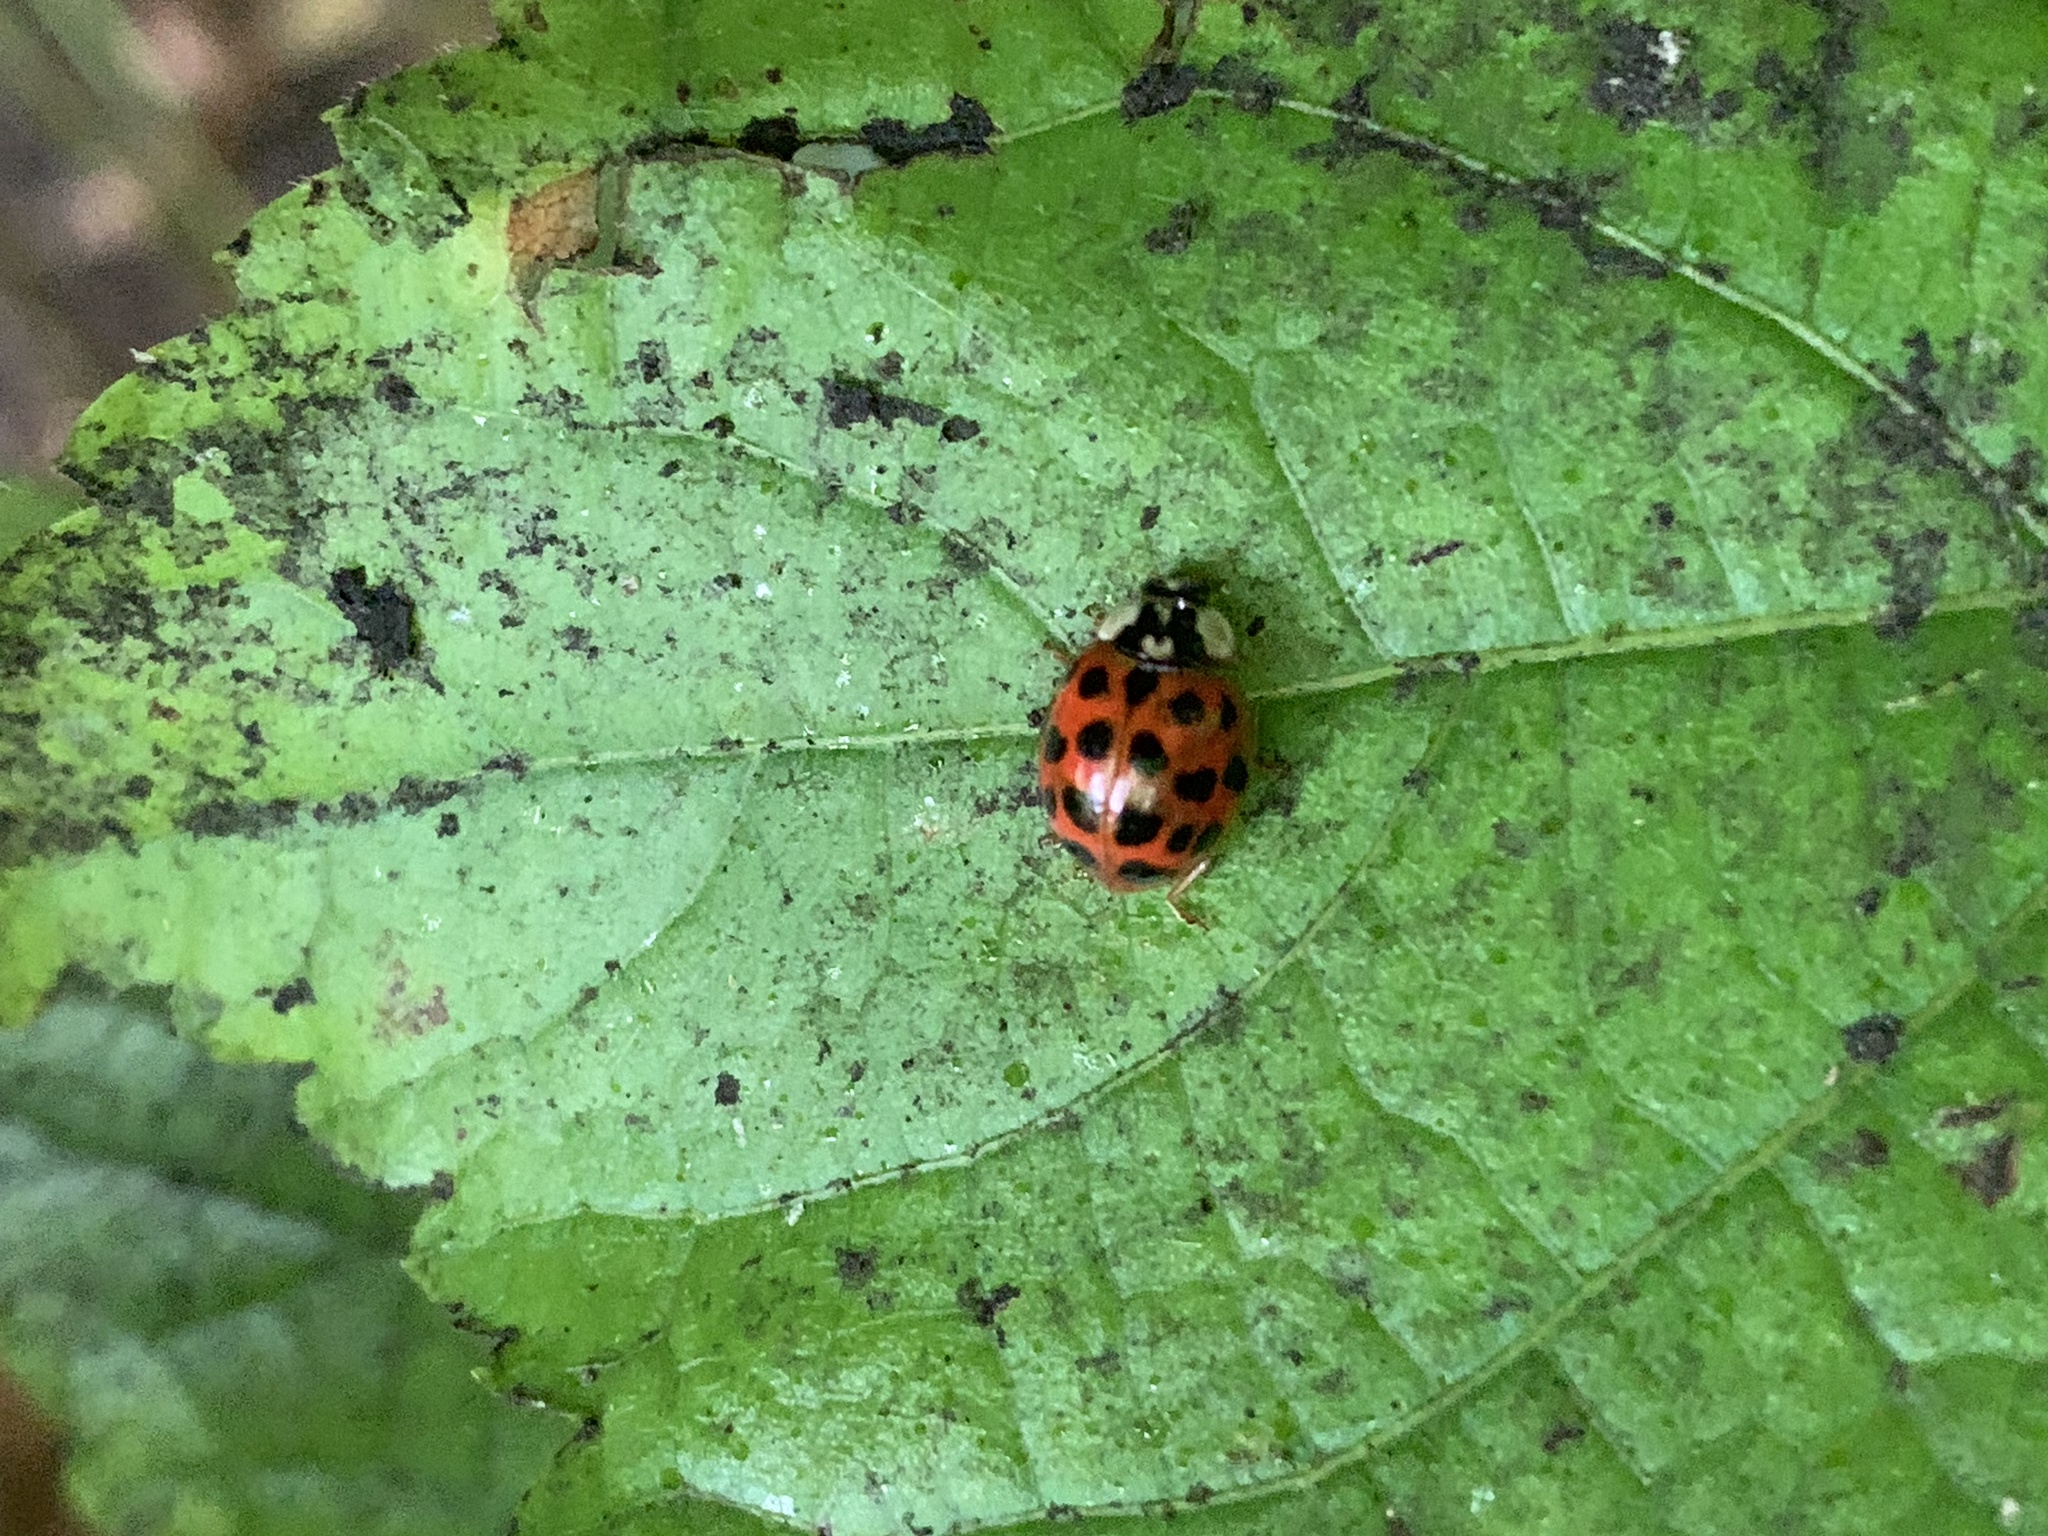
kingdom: Animalia
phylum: Arthropoda
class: Insecta
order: Coleoptera
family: Coccinellidae
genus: Harmonia
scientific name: Harmonia axyridis
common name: Harlequin ladybird
